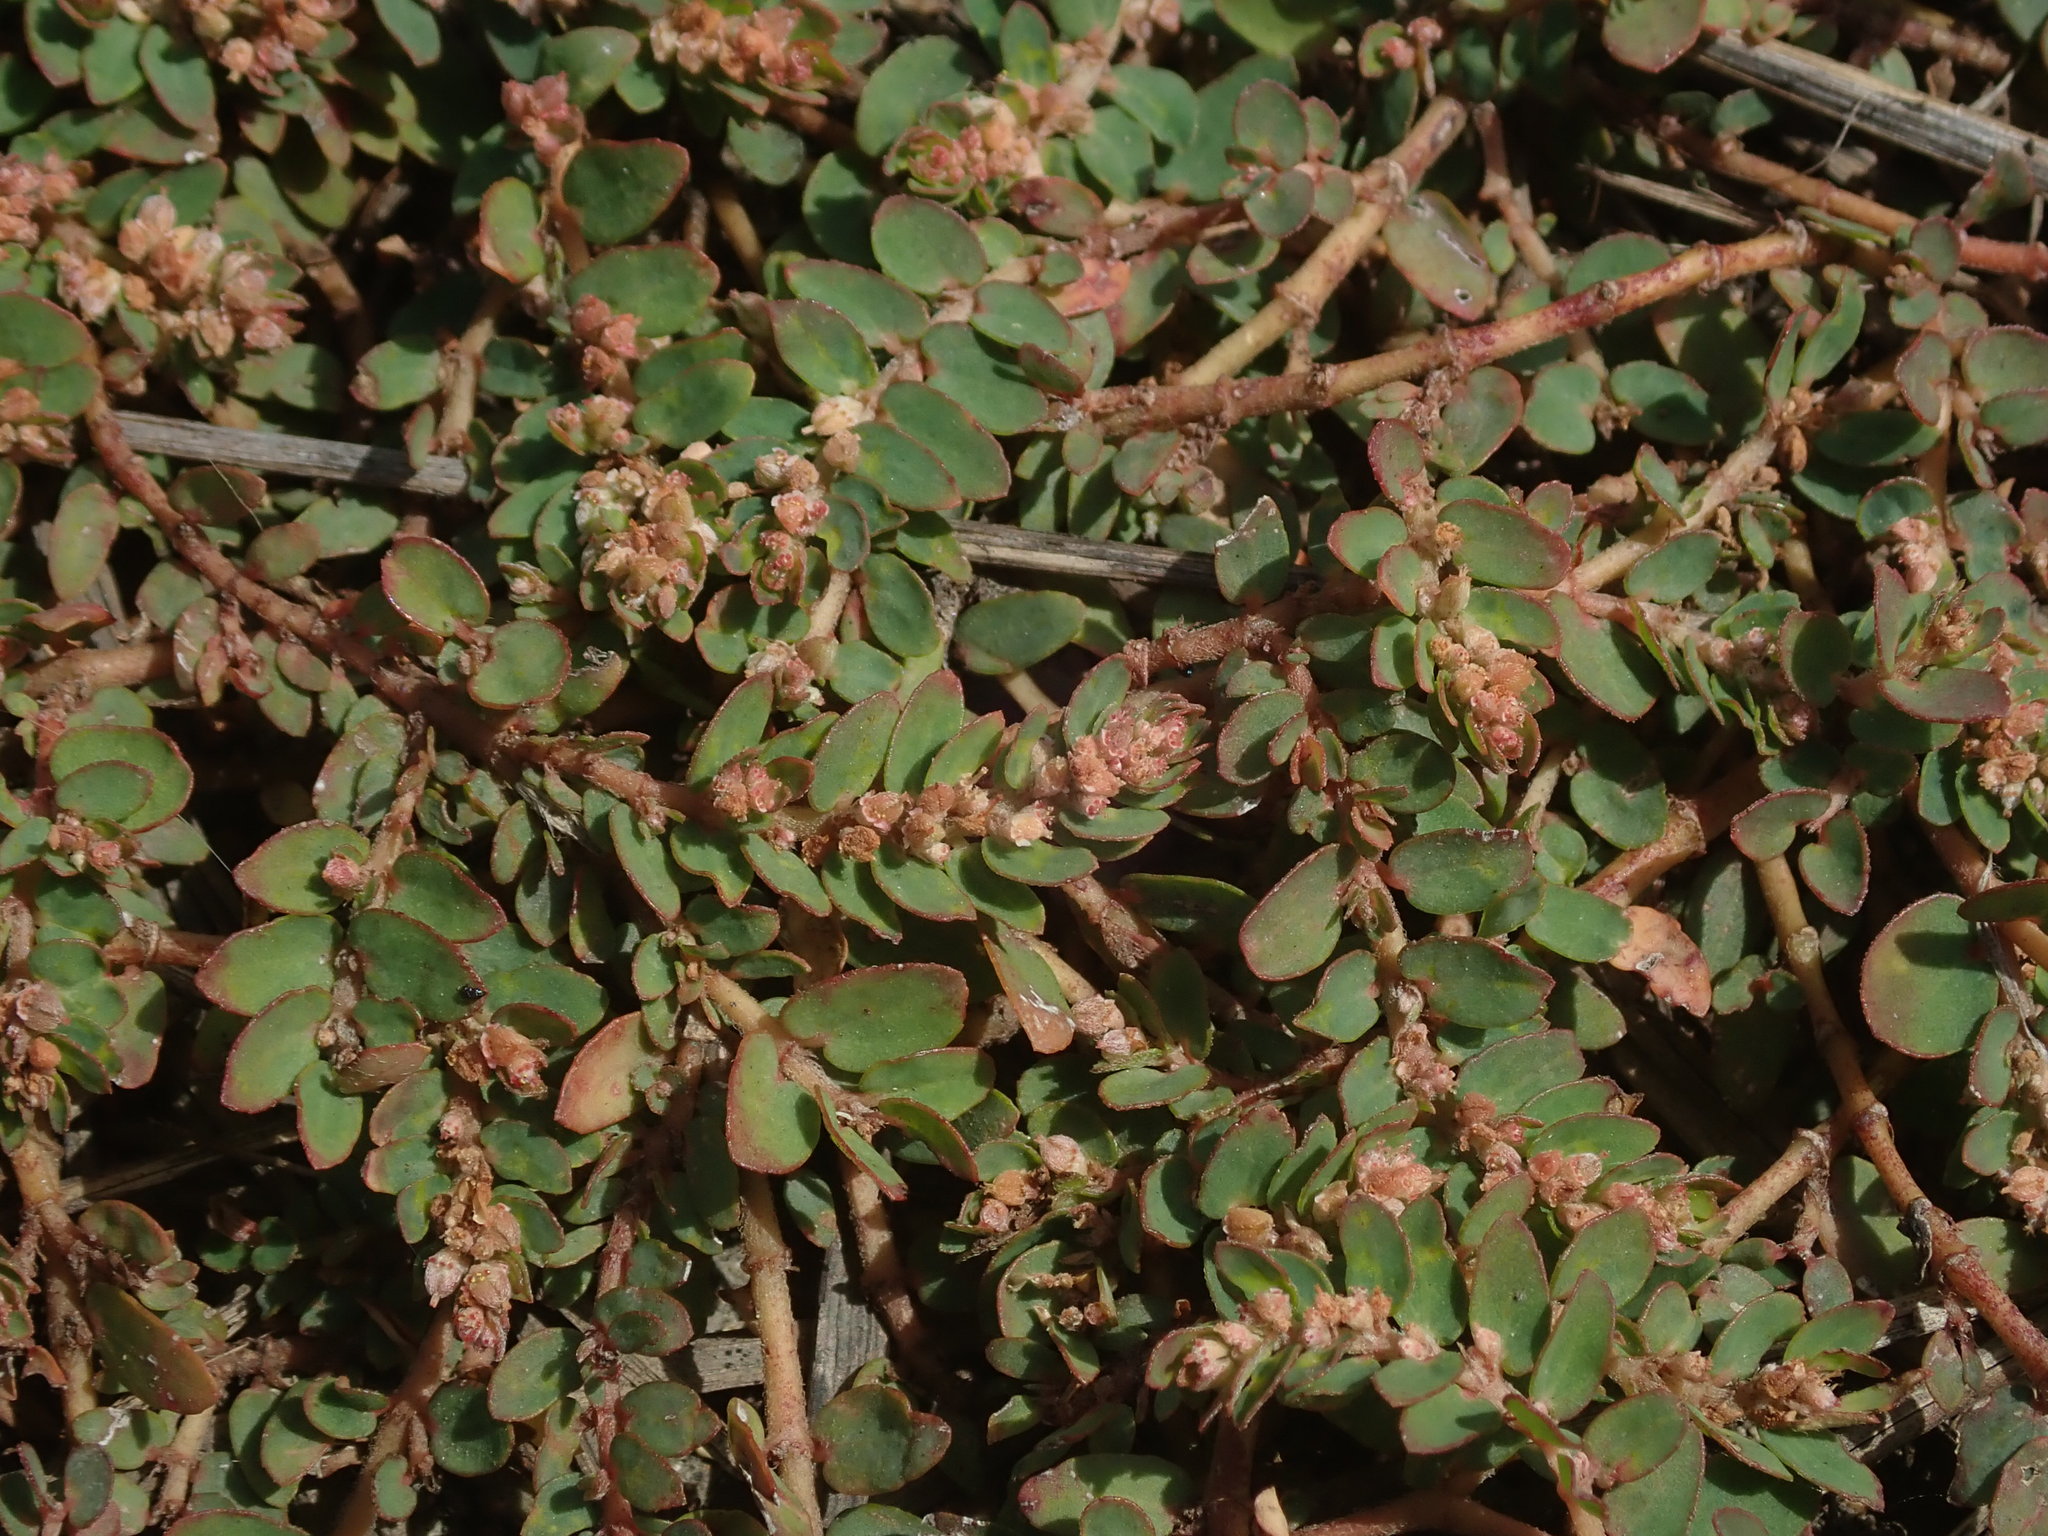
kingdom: Plantae
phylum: Tracheophyta
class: Magnoliopsida
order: Malpighiales
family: Euphorbiaceae
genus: Euphorbia
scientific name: Euphorbia thymifolia
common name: Gulf sandmat
